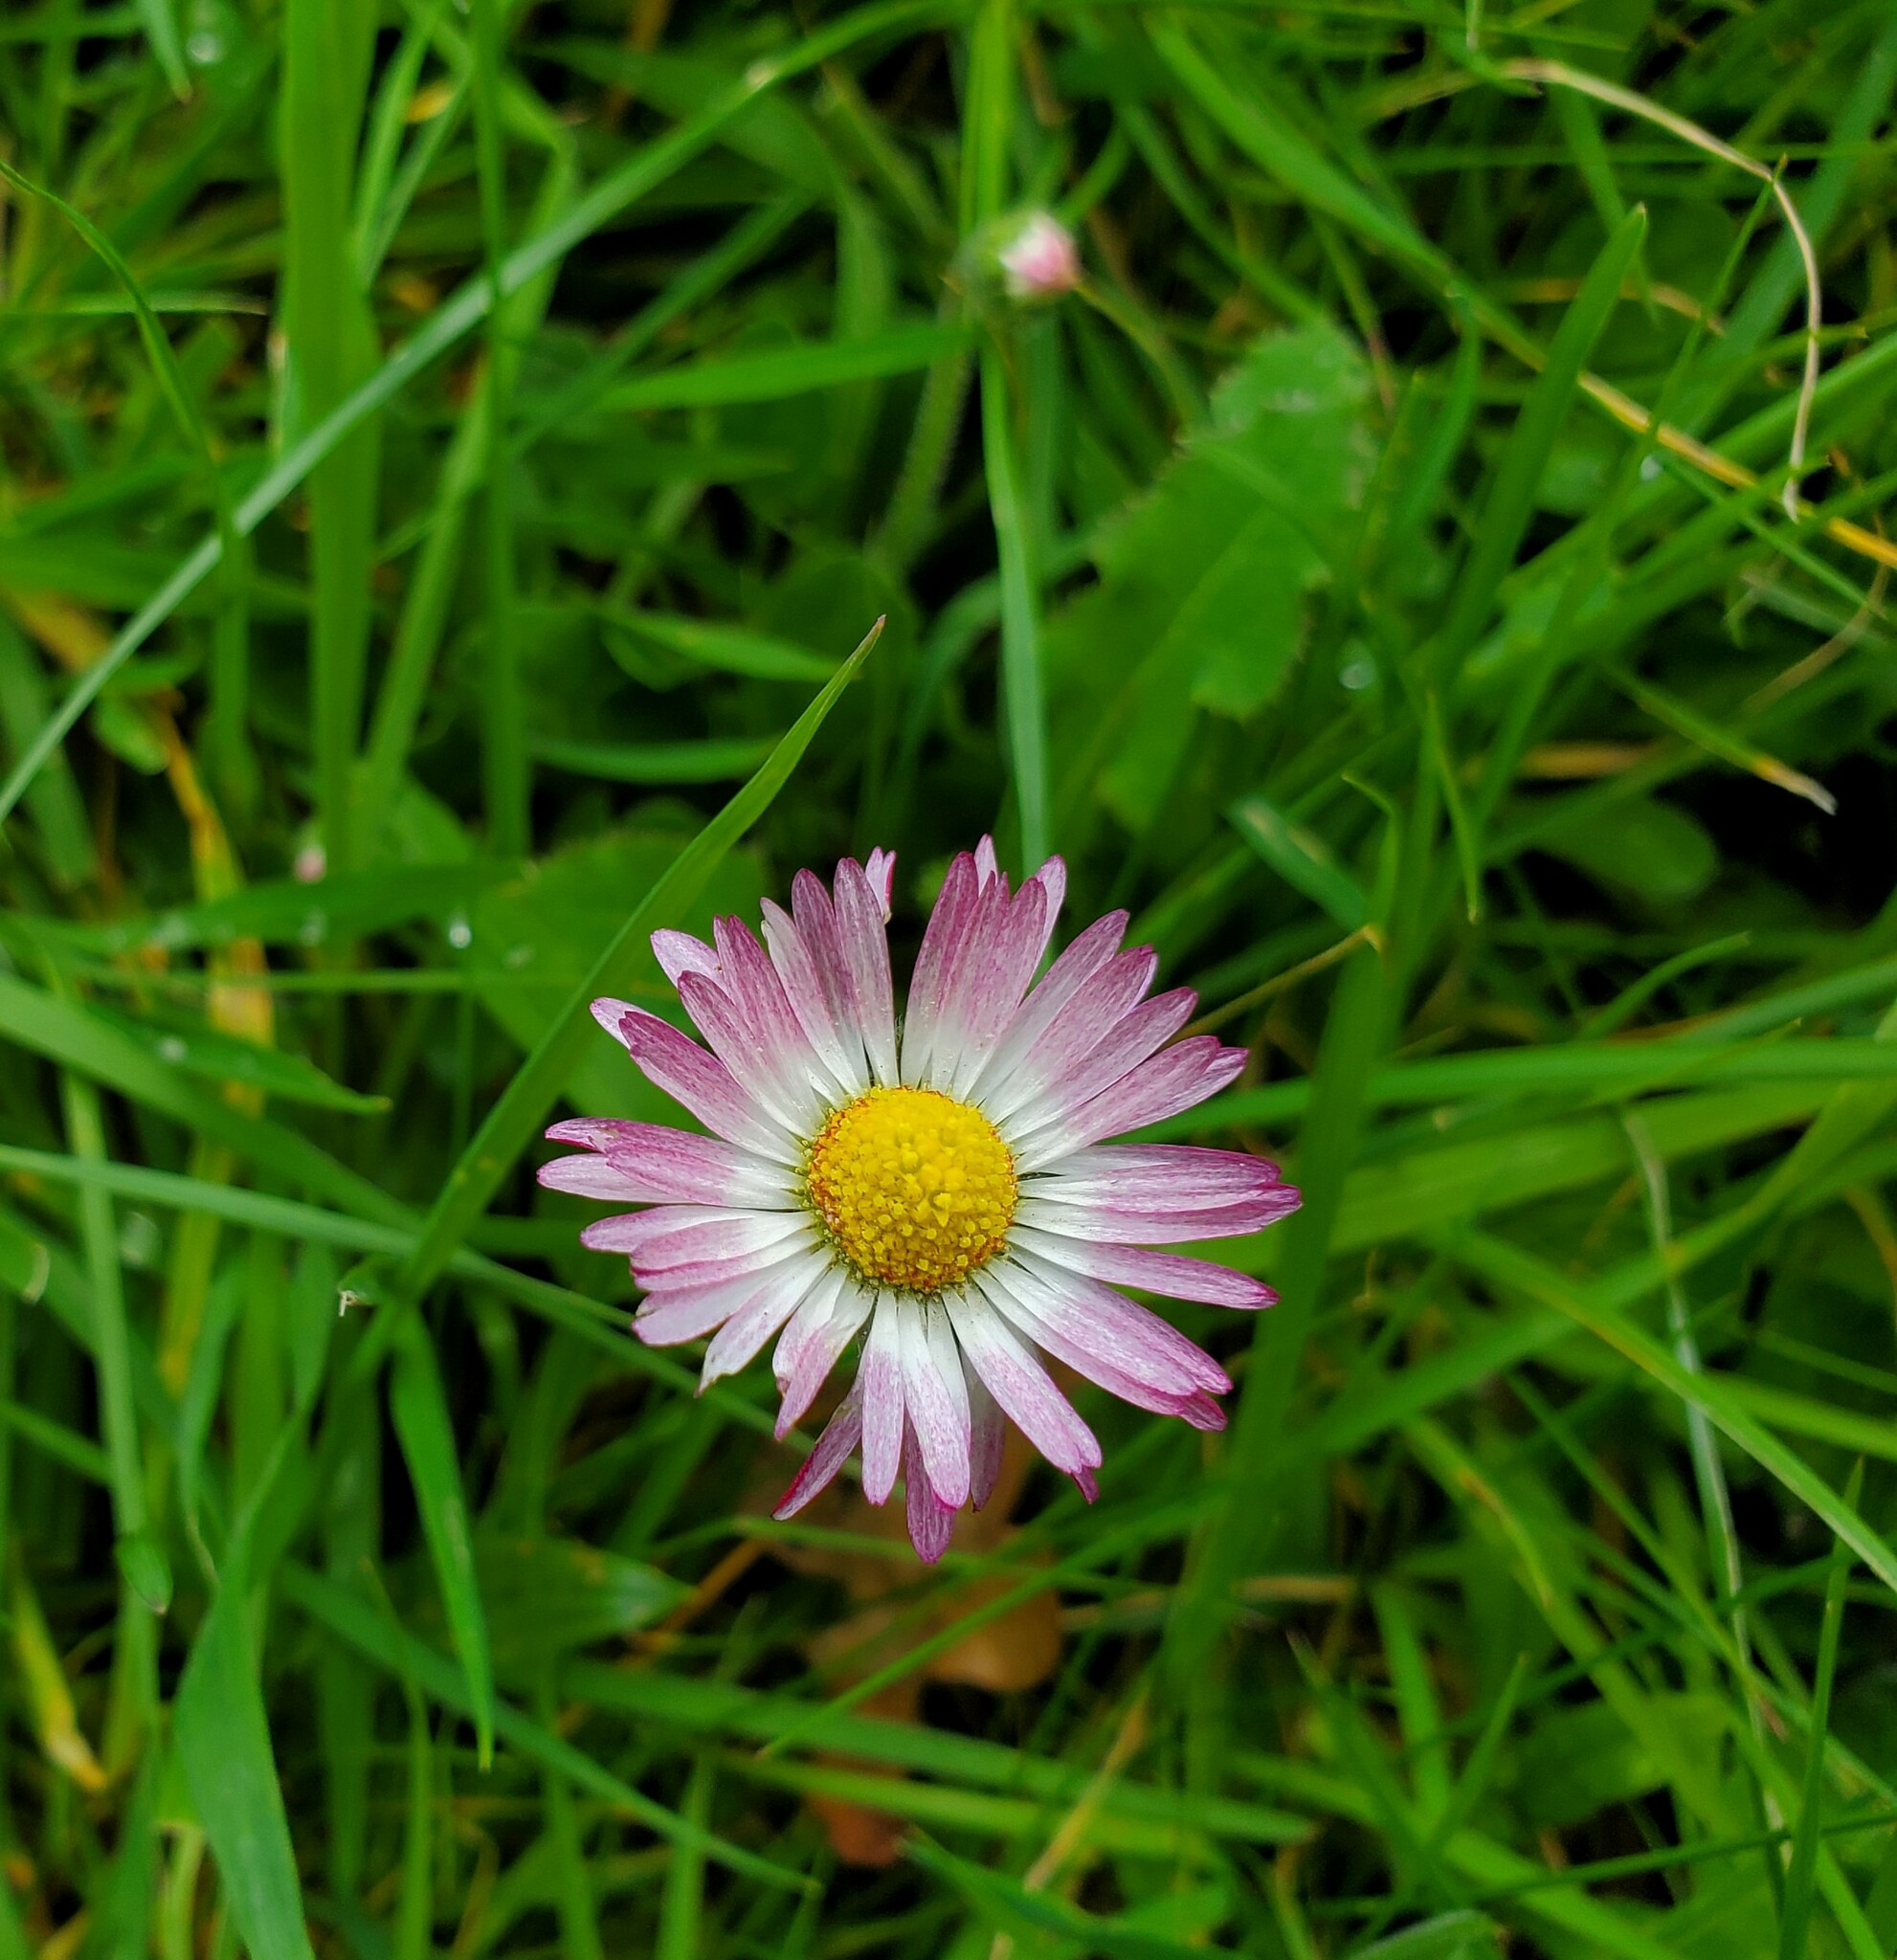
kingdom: Plantae
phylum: Tracheophyta
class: Magnoliopsida
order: Asterales
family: Asteraceae
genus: Bellis
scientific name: Bellis perennis
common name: Lawndaisy
